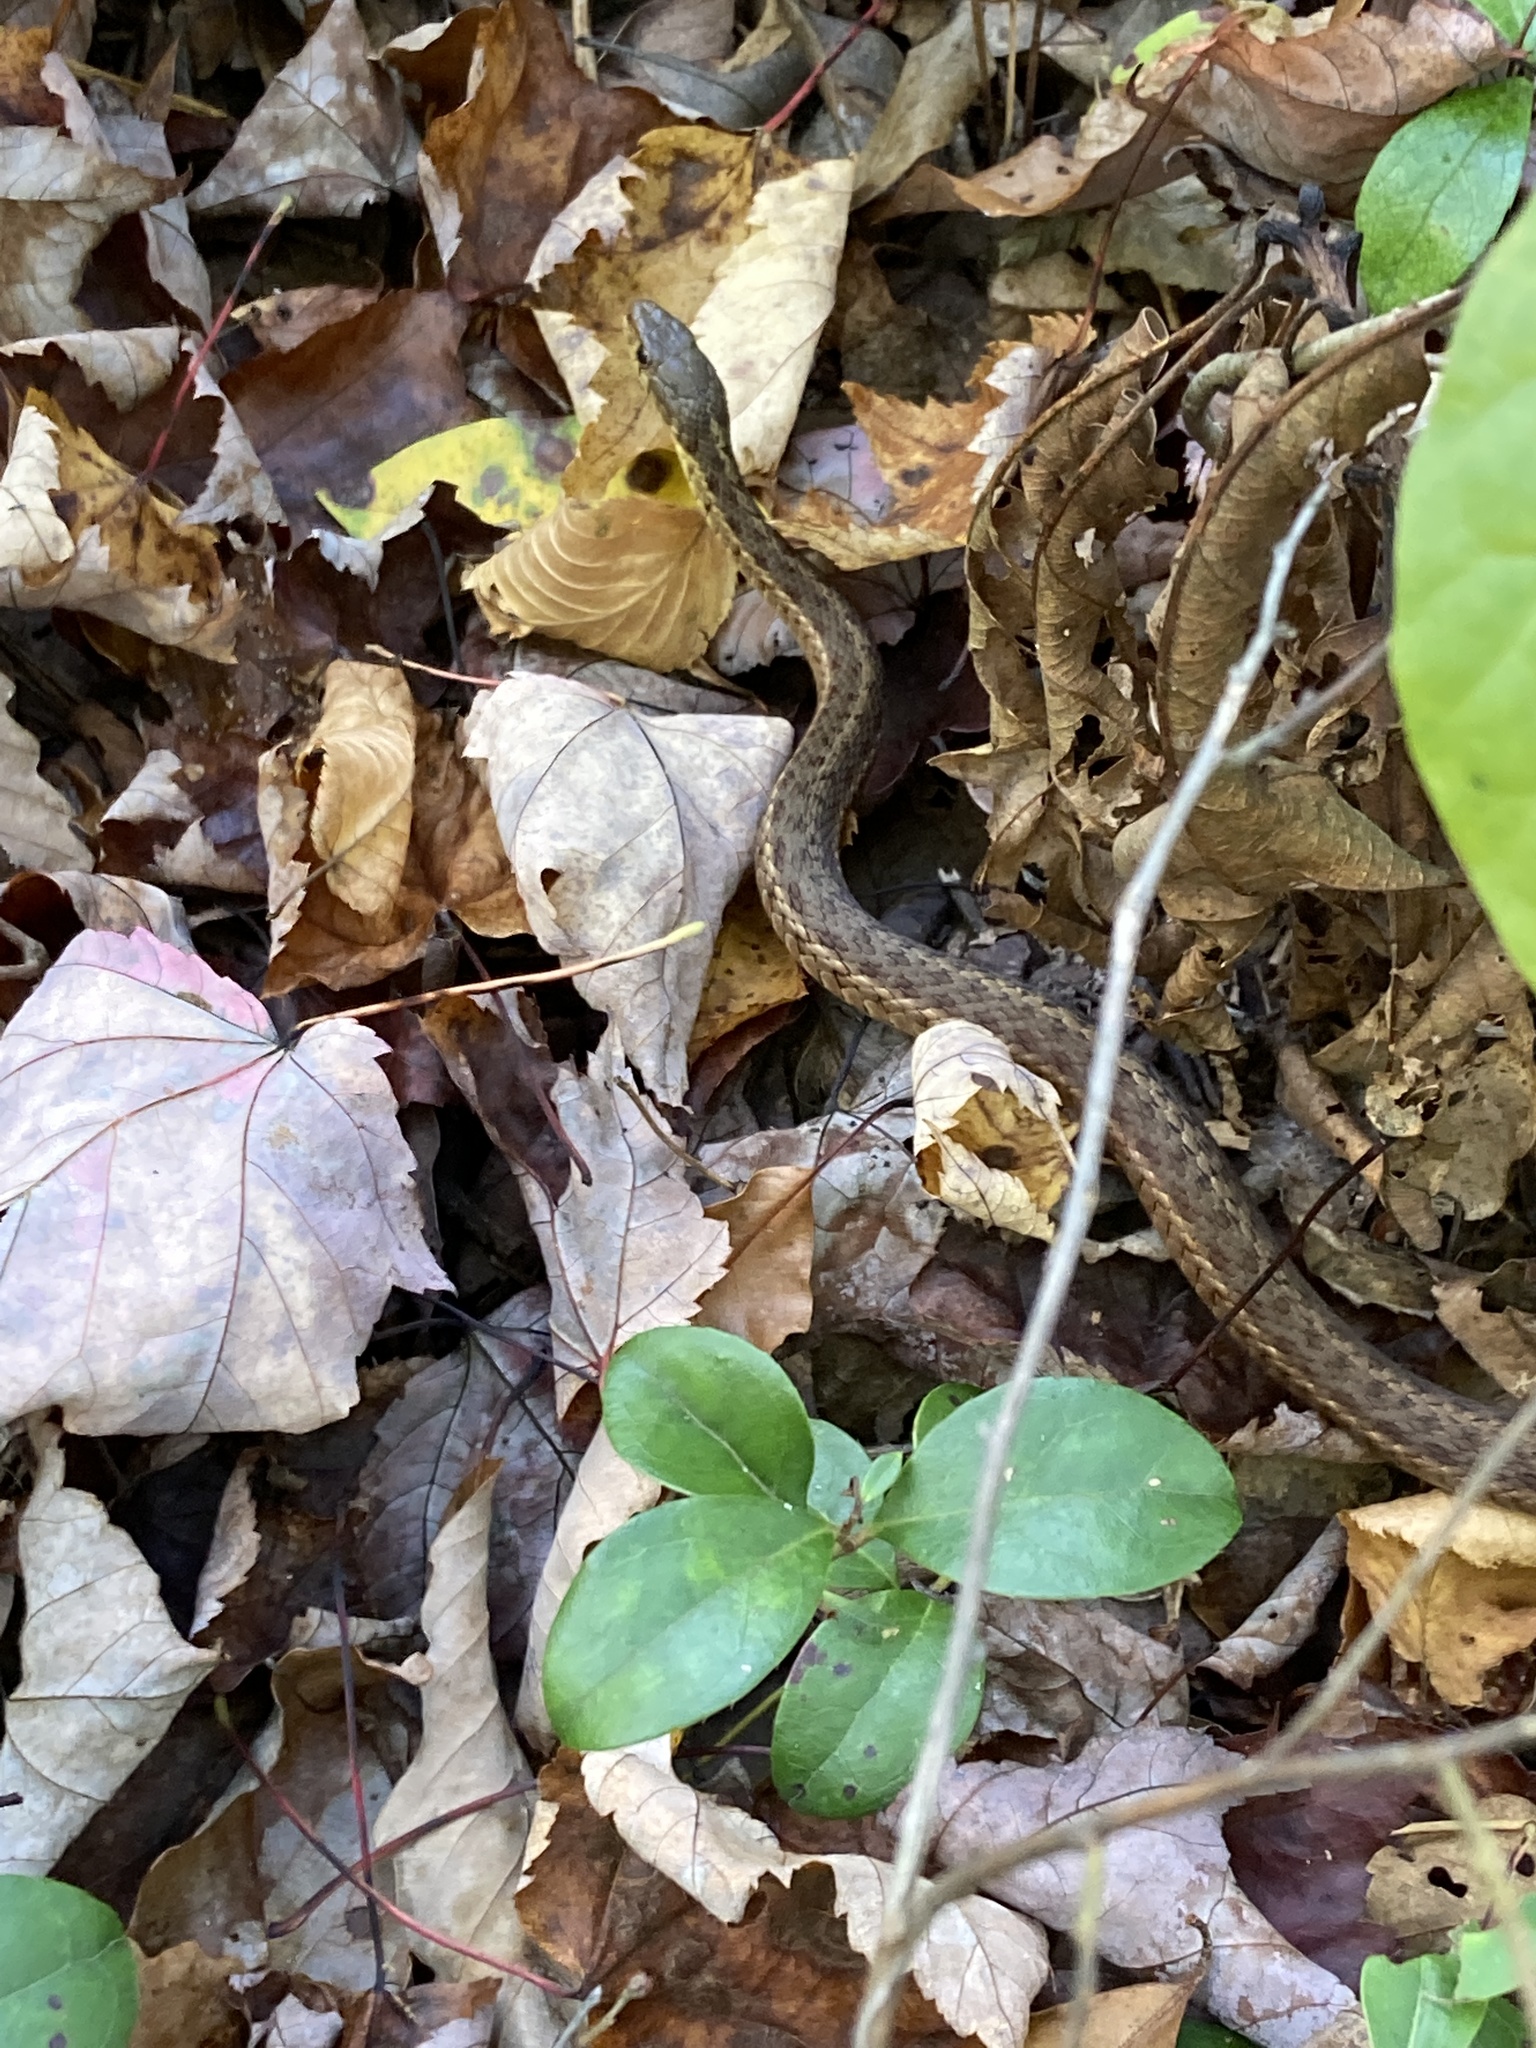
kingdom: Animalia
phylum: Chordata
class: Squamata
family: Colubridae
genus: Thamnophis
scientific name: Thamnophis sirtalis
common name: Common garter snake
